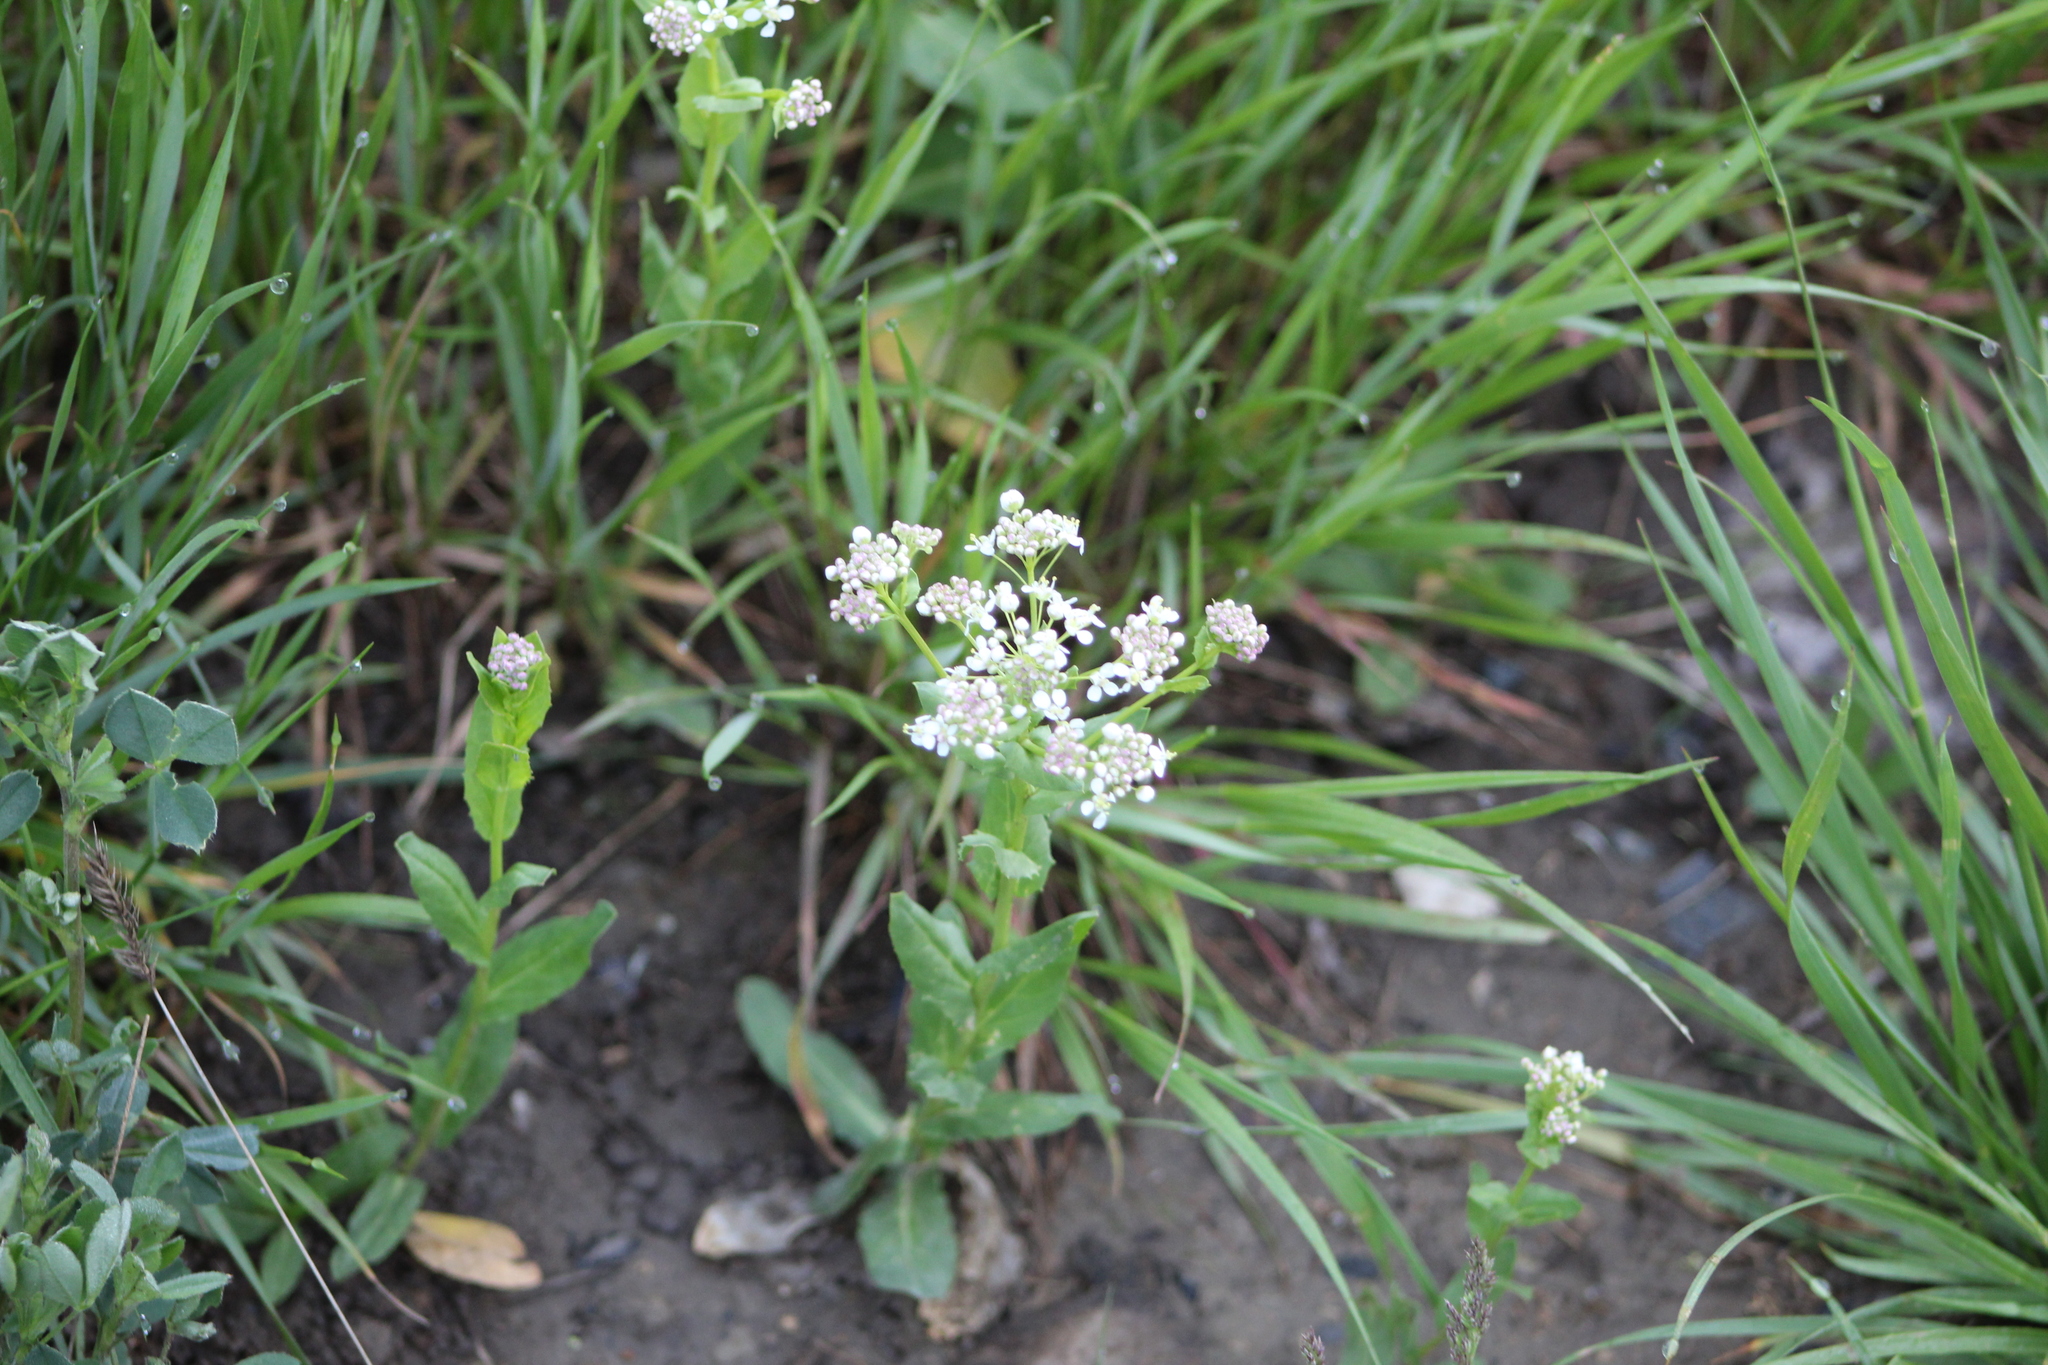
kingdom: Plantae
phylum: Tracheophyta
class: Magnoliopsida
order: Brassicales
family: Brassicaceae
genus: Lepidium
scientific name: Lepidium draba
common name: Hoary cress
